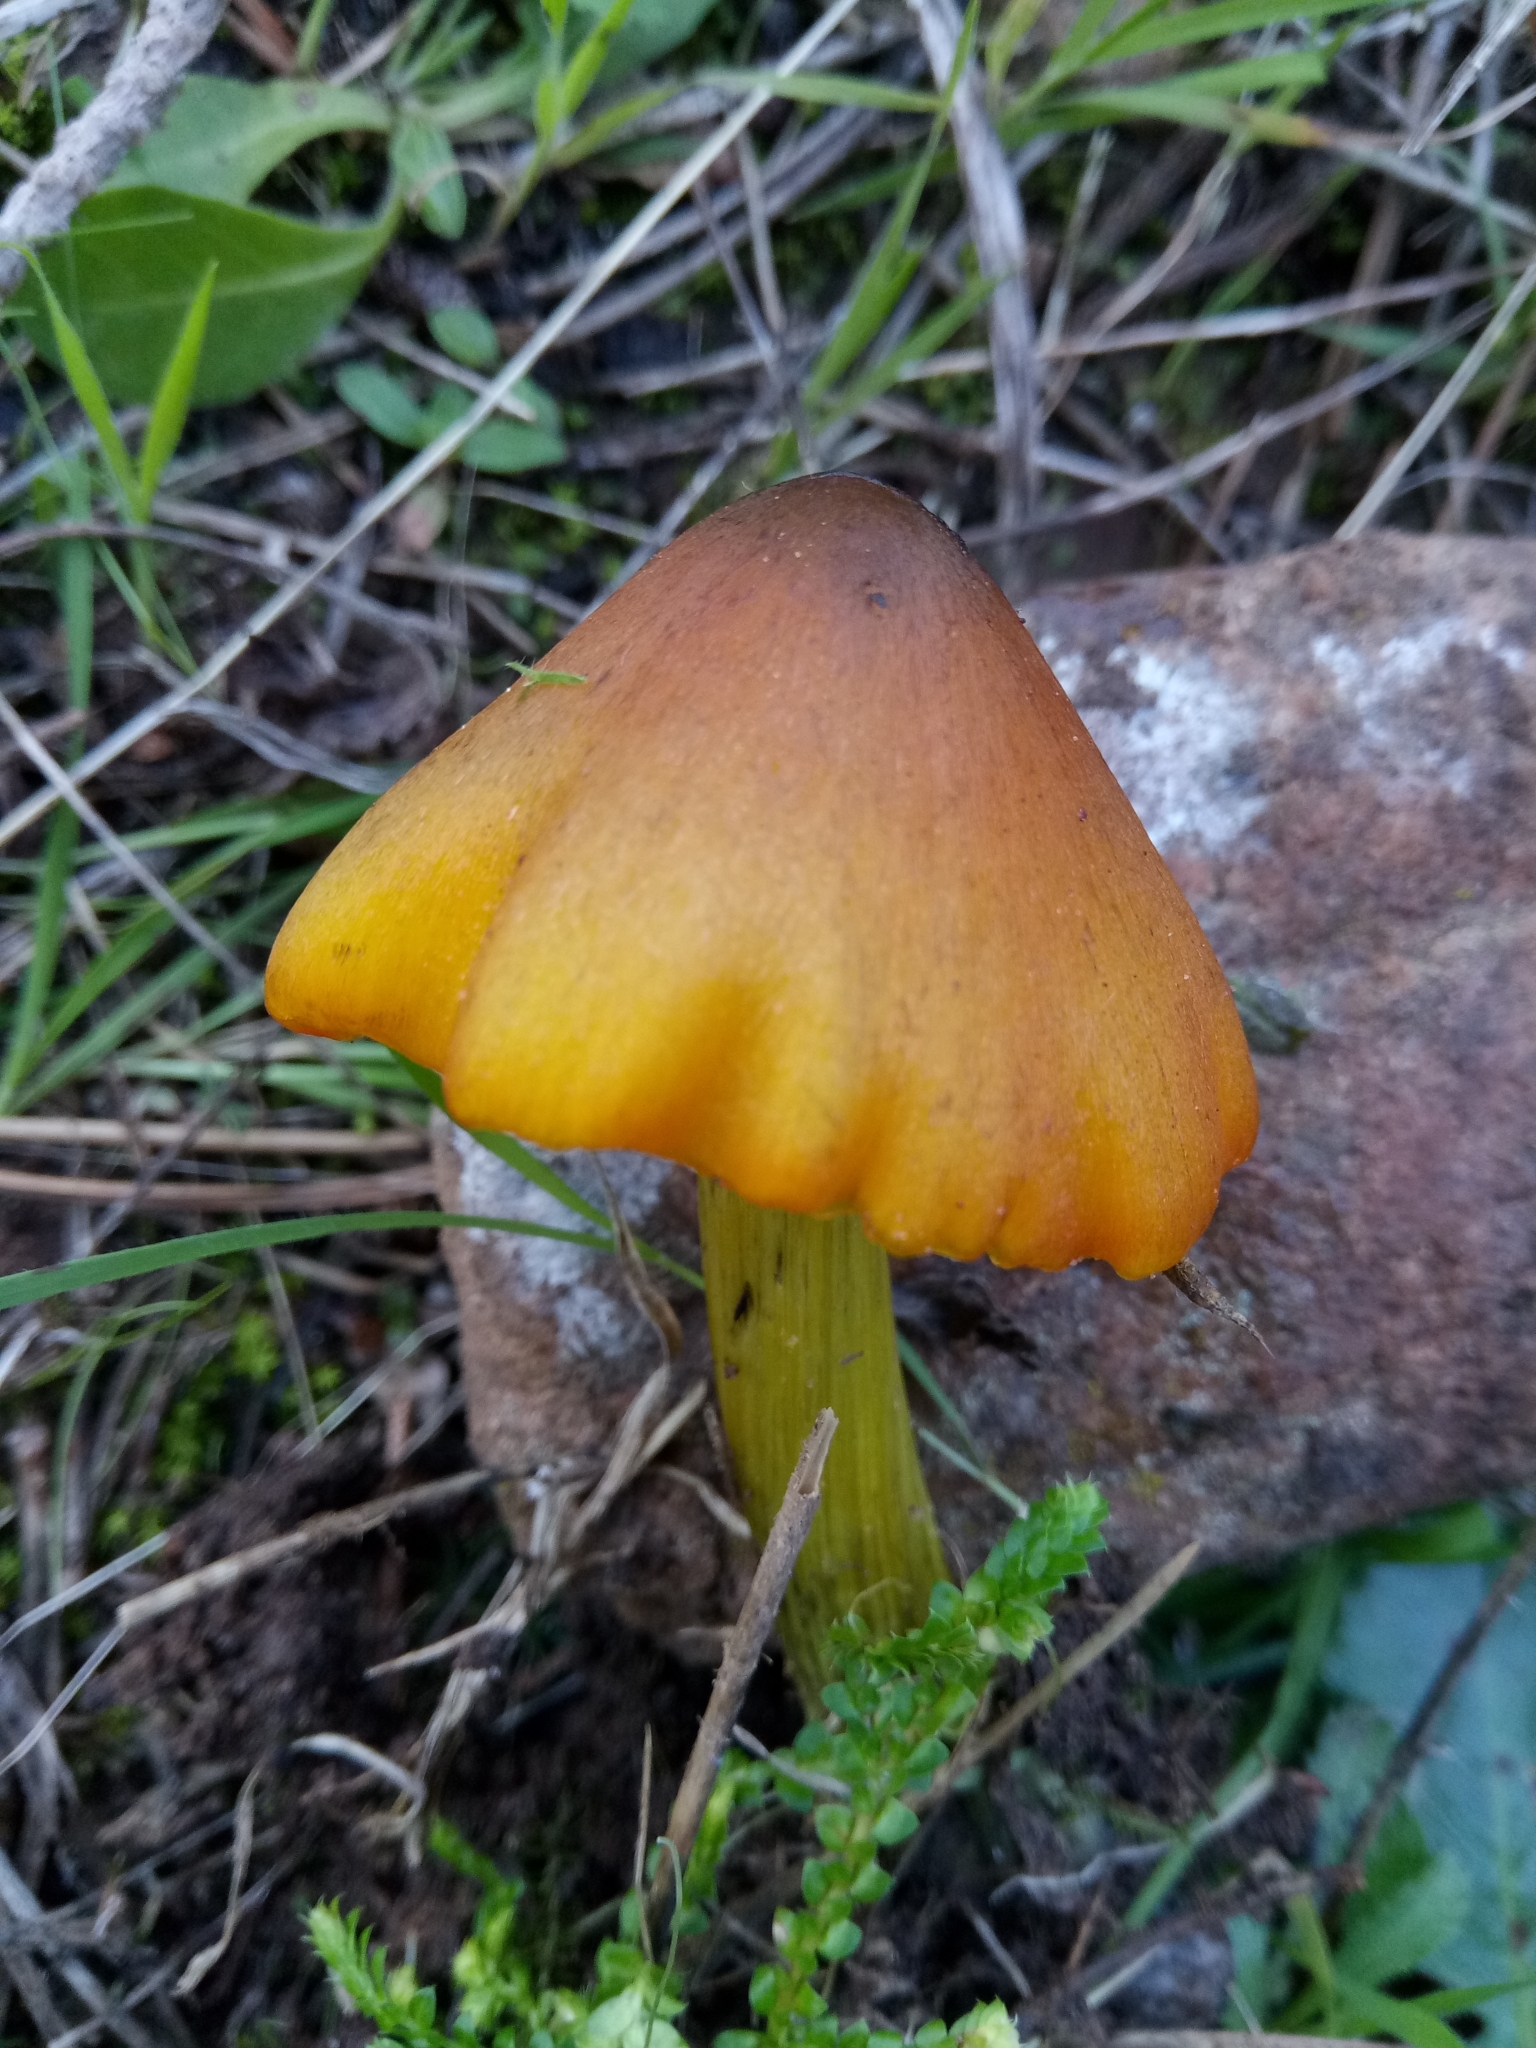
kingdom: Fungi
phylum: Basidiomycota
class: Agaricomycetes
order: Agaricales
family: Hygrophoraceae
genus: Hygrocybe
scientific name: Hygrocybe conica
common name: Blackening wax-cap
